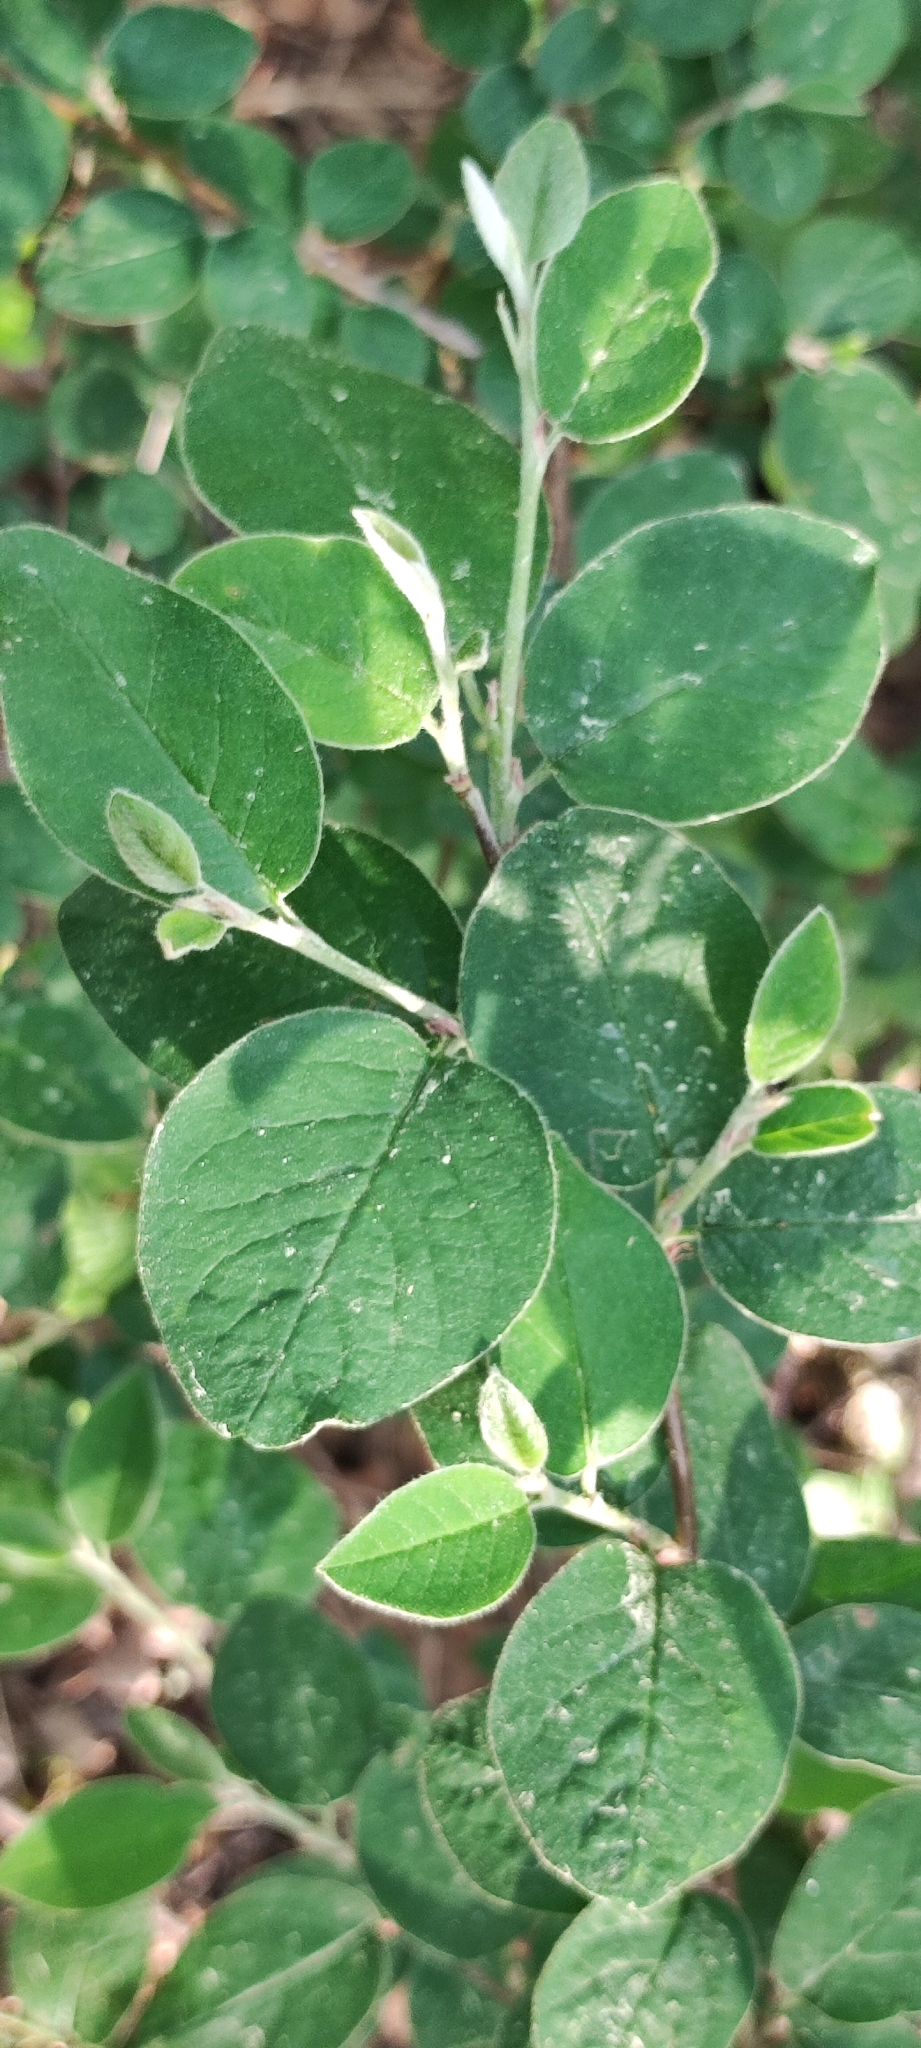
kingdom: Plantae
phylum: Tracheophyta
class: Magnoliopsida
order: Rosales
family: Rosaceae
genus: Cotoneaster
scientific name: Cotoneaster melanocarpus
